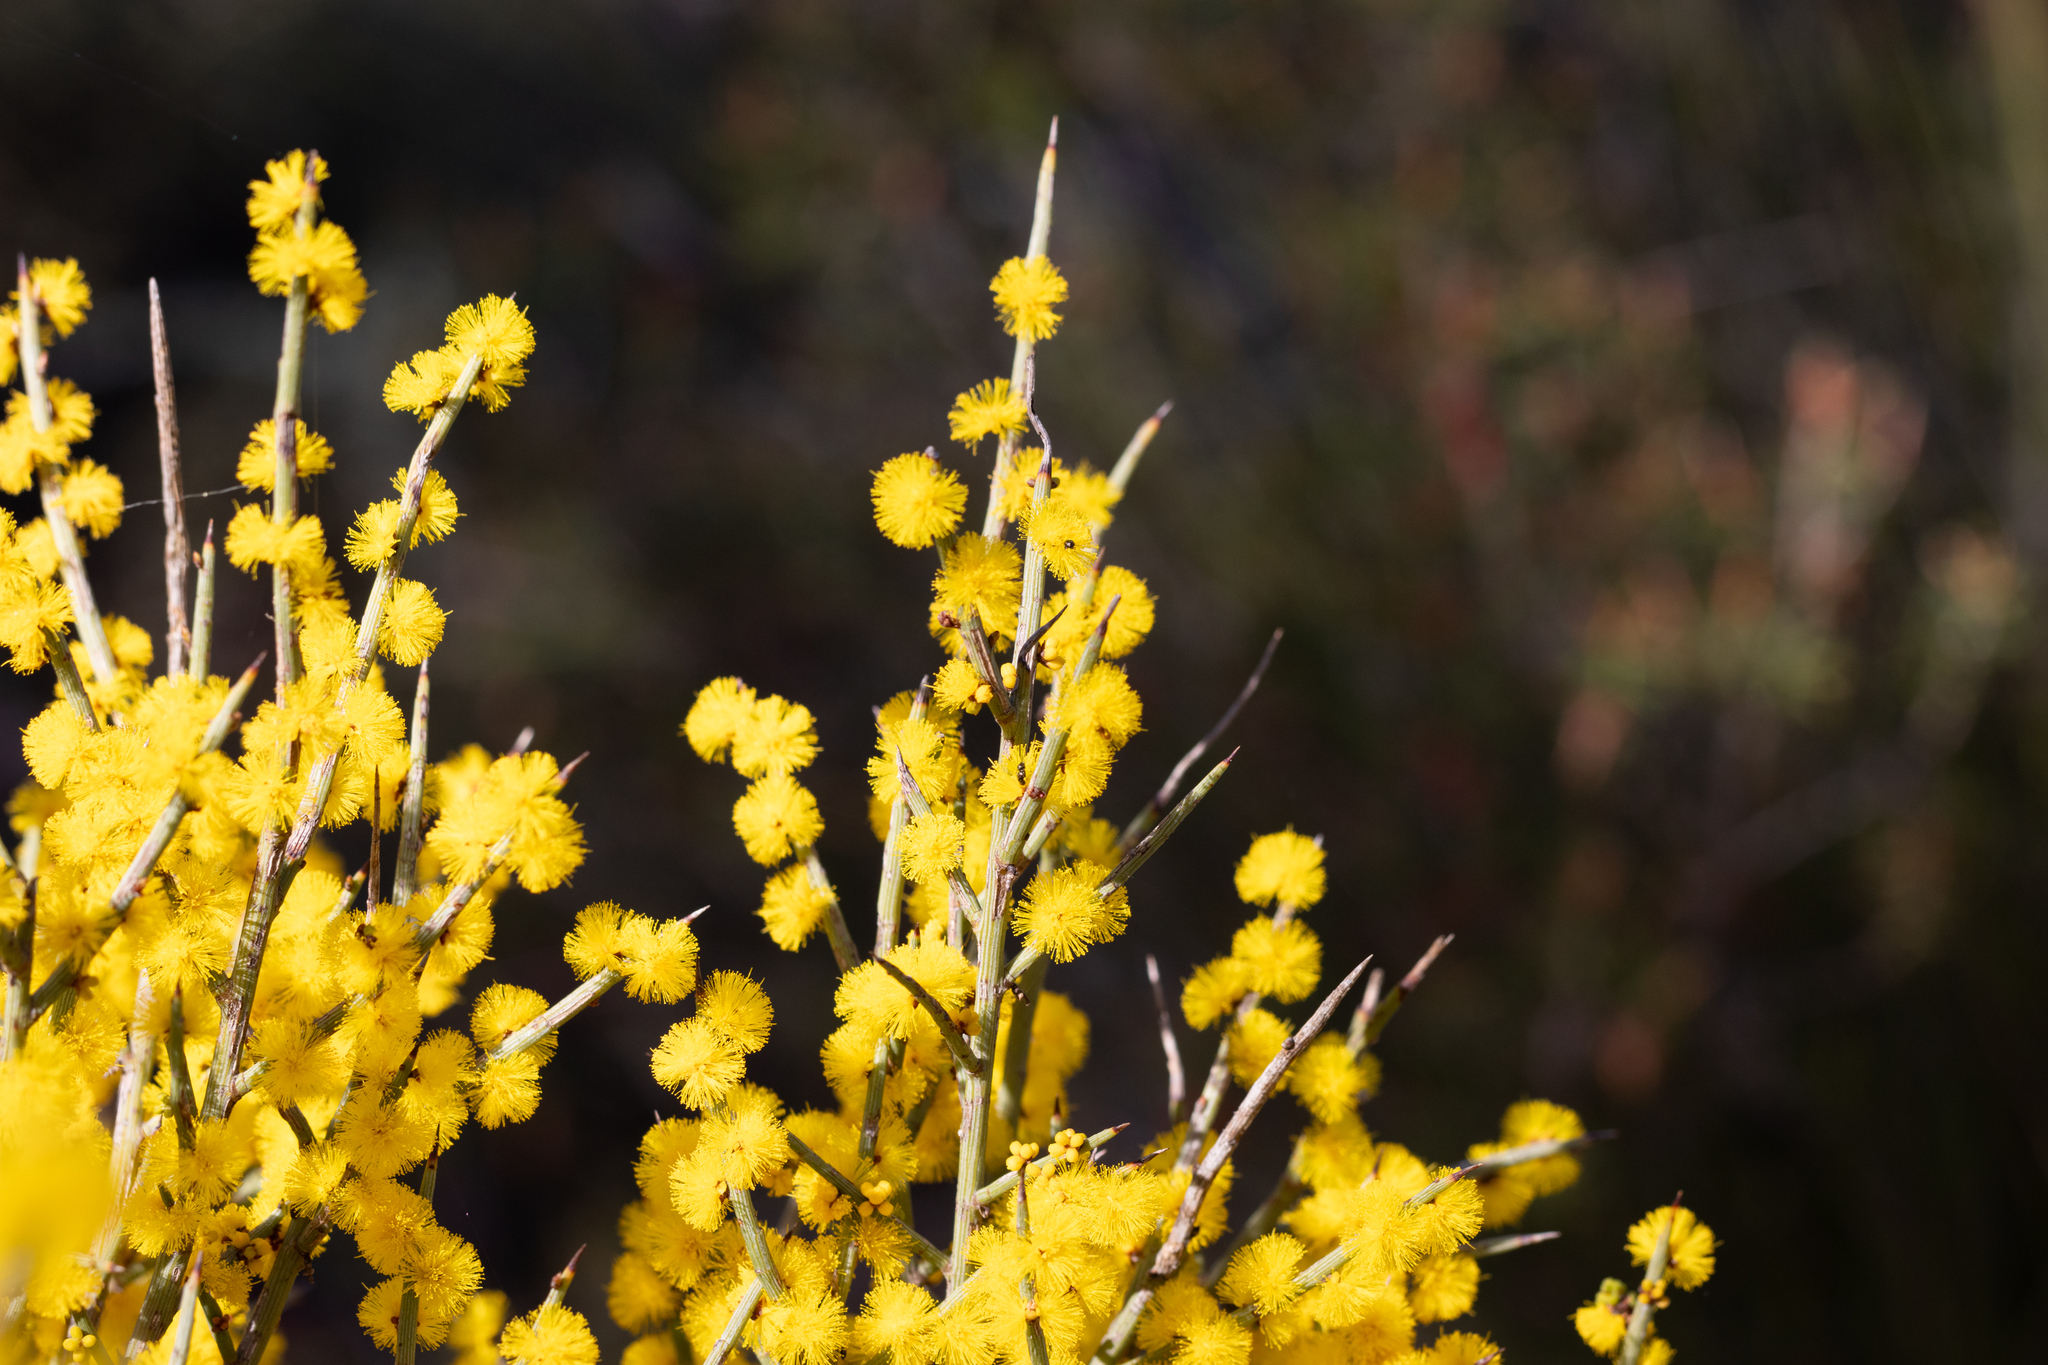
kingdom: Plantae
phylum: Tracheophyta
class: Magnoliopsida
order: Fabales
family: Fabaceae
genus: Acacia
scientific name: Acacia spinescens
